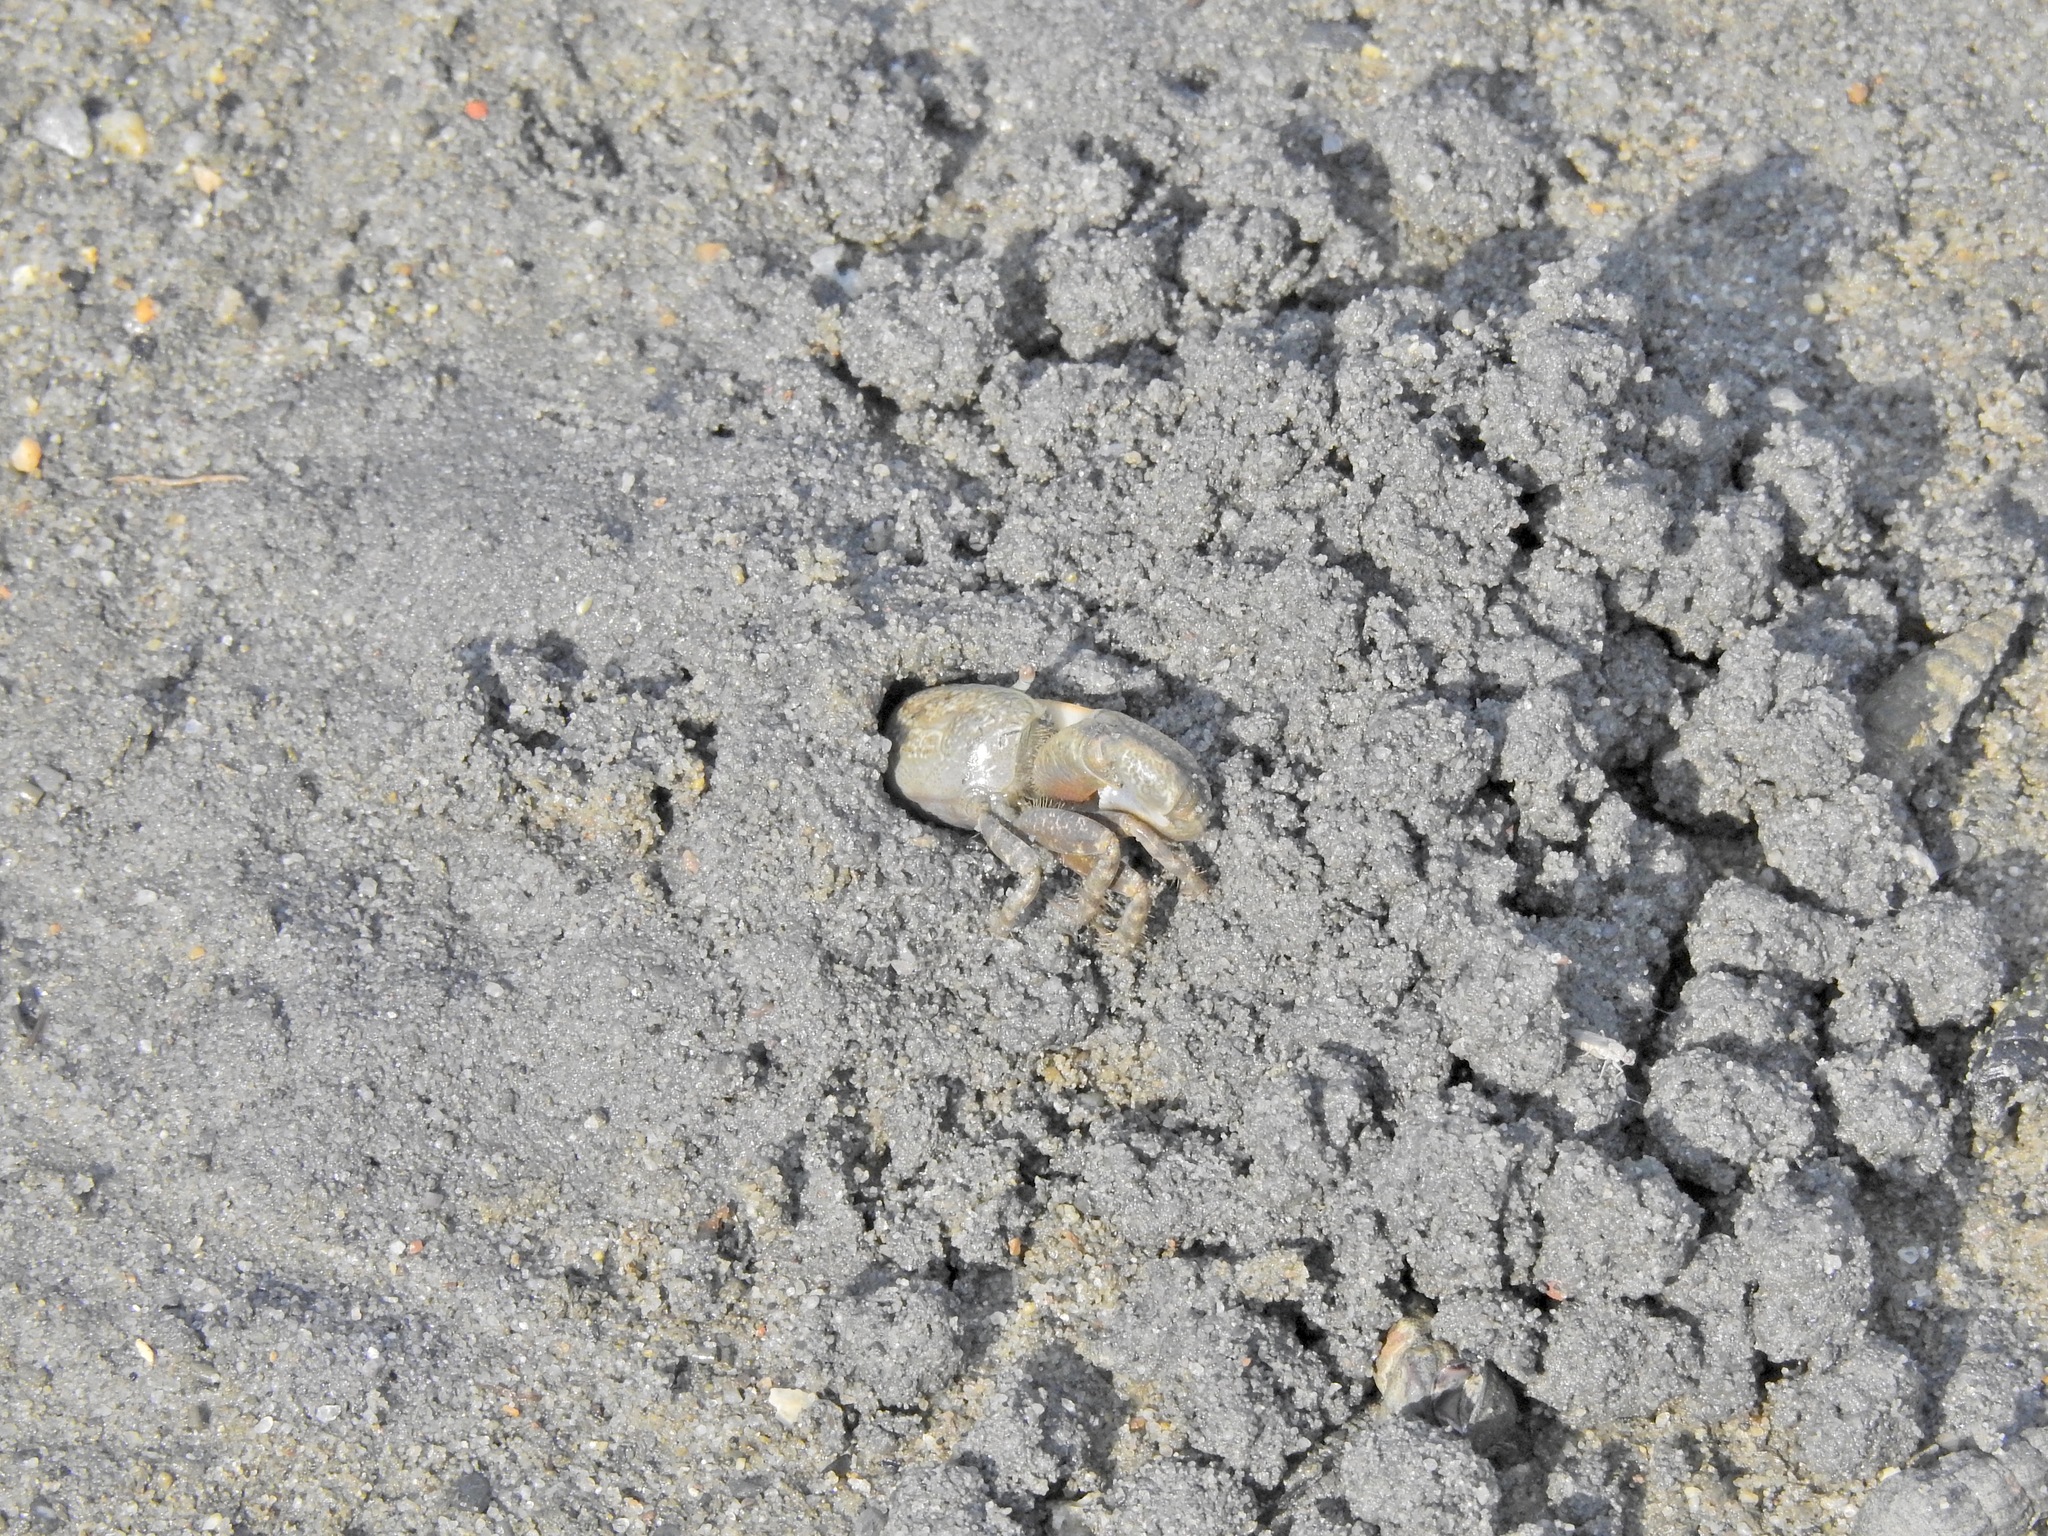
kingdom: Animalia
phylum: Arthropoda
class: Malacostraca
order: Decapoda
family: Ocypodidae
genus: Leptuca
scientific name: Leptuca crenulata
